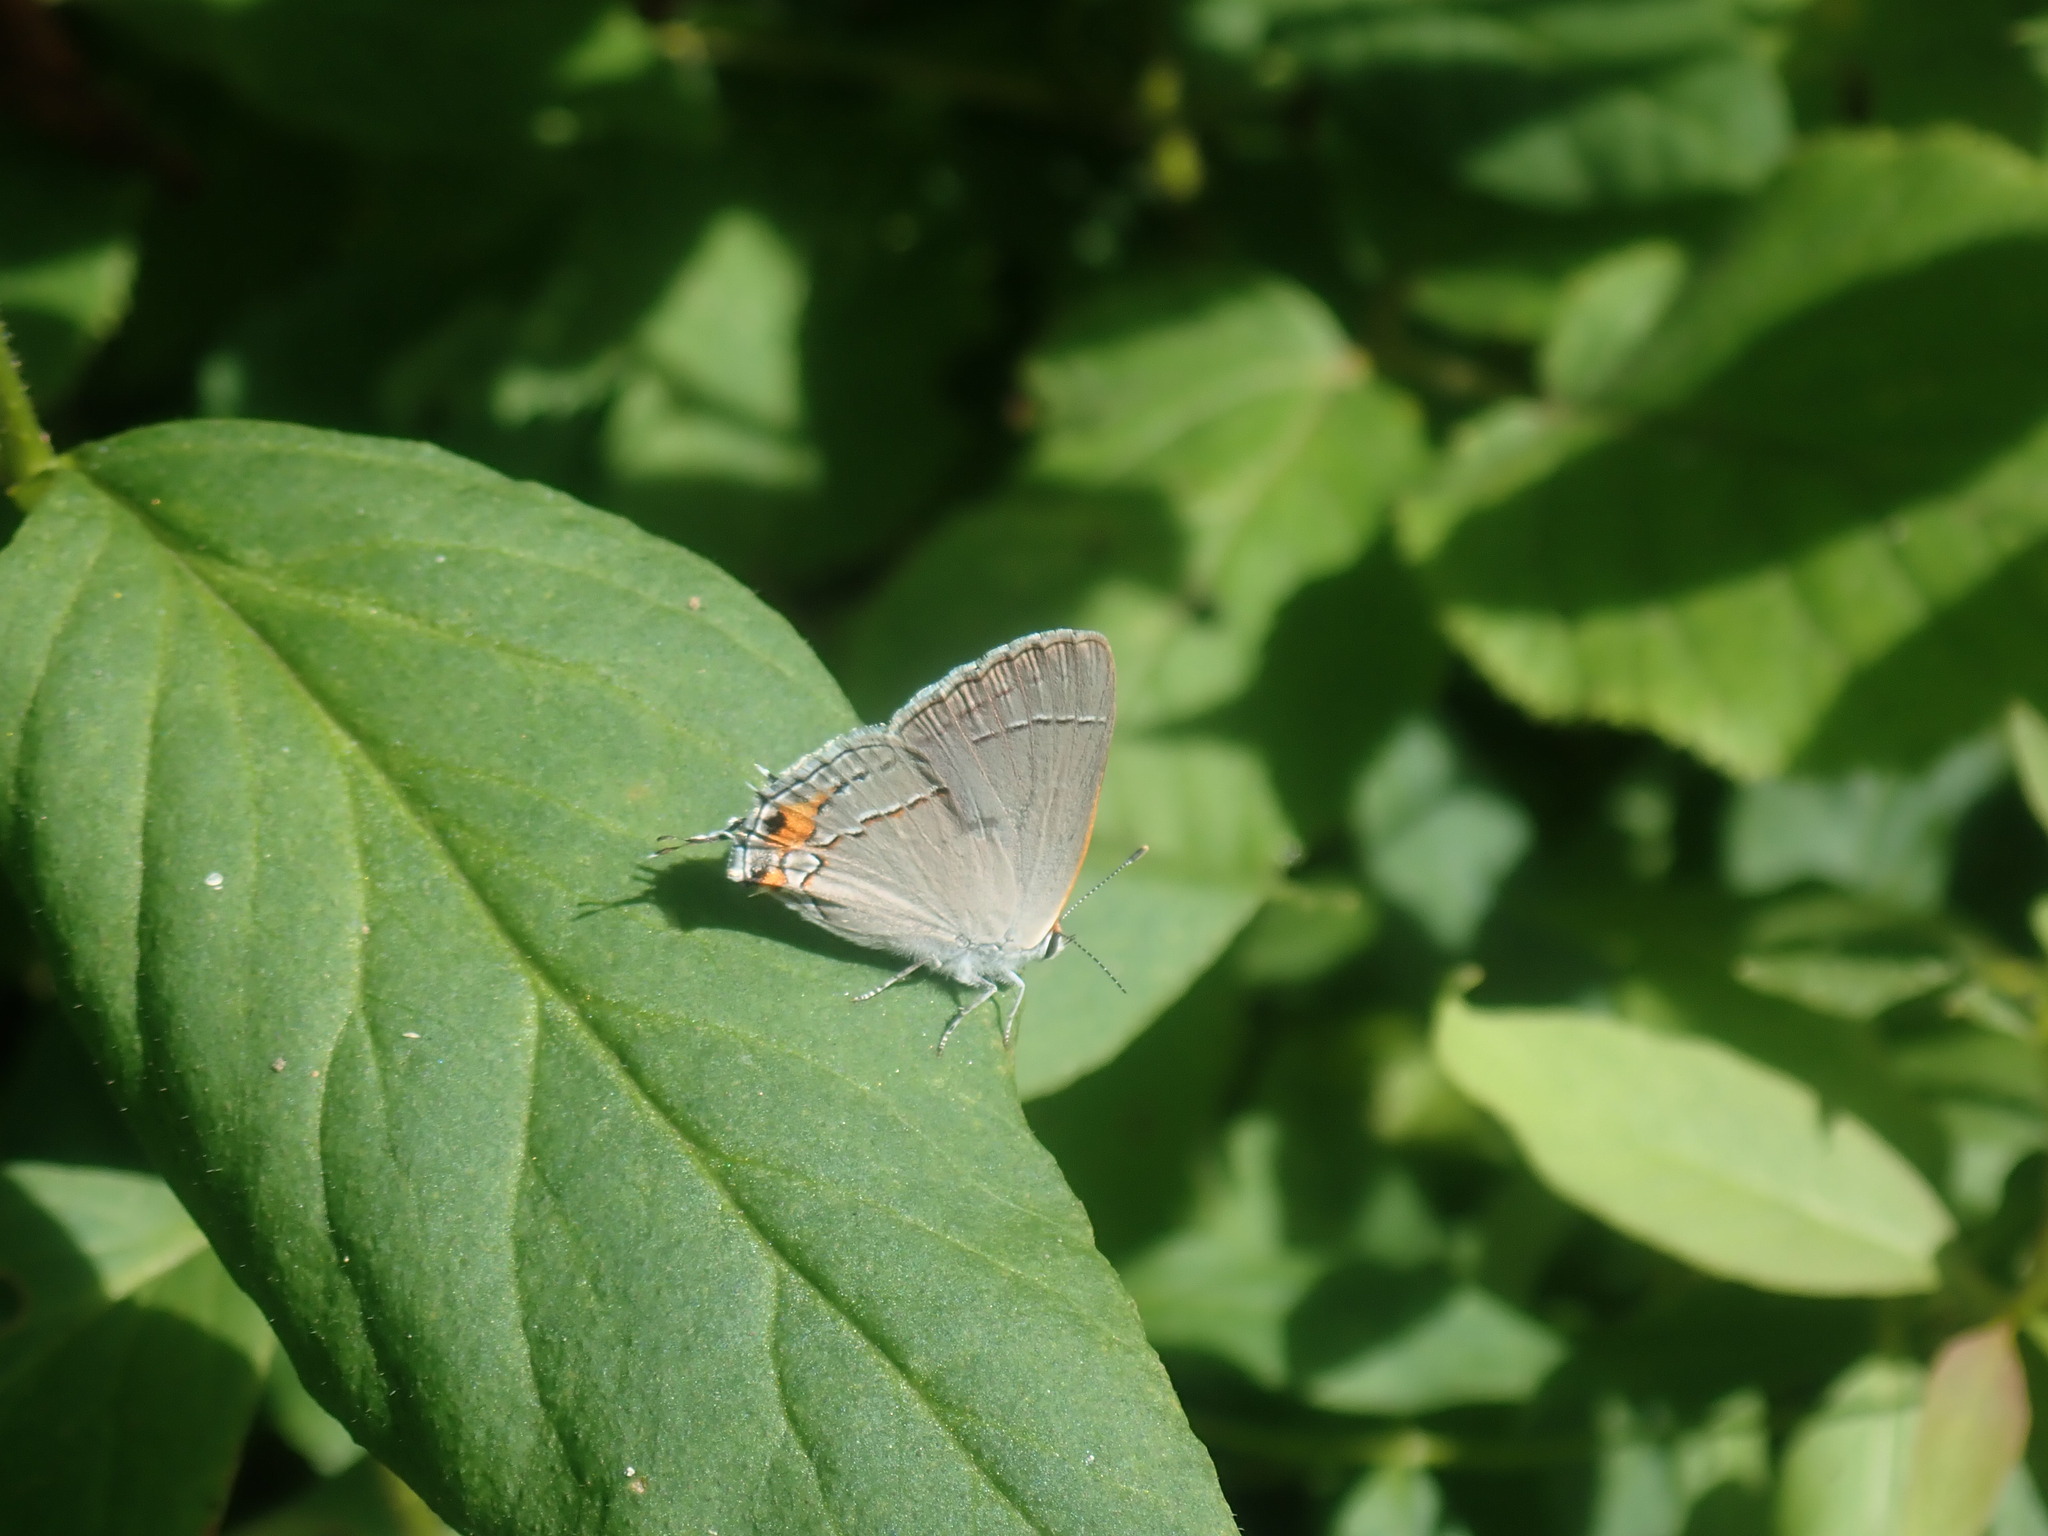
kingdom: Animalia
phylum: Arthropoda
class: Insecta
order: Lepidoptera
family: Lycaenidae
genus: Strymon
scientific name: Strymon melinus
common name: Gray hairstreak
